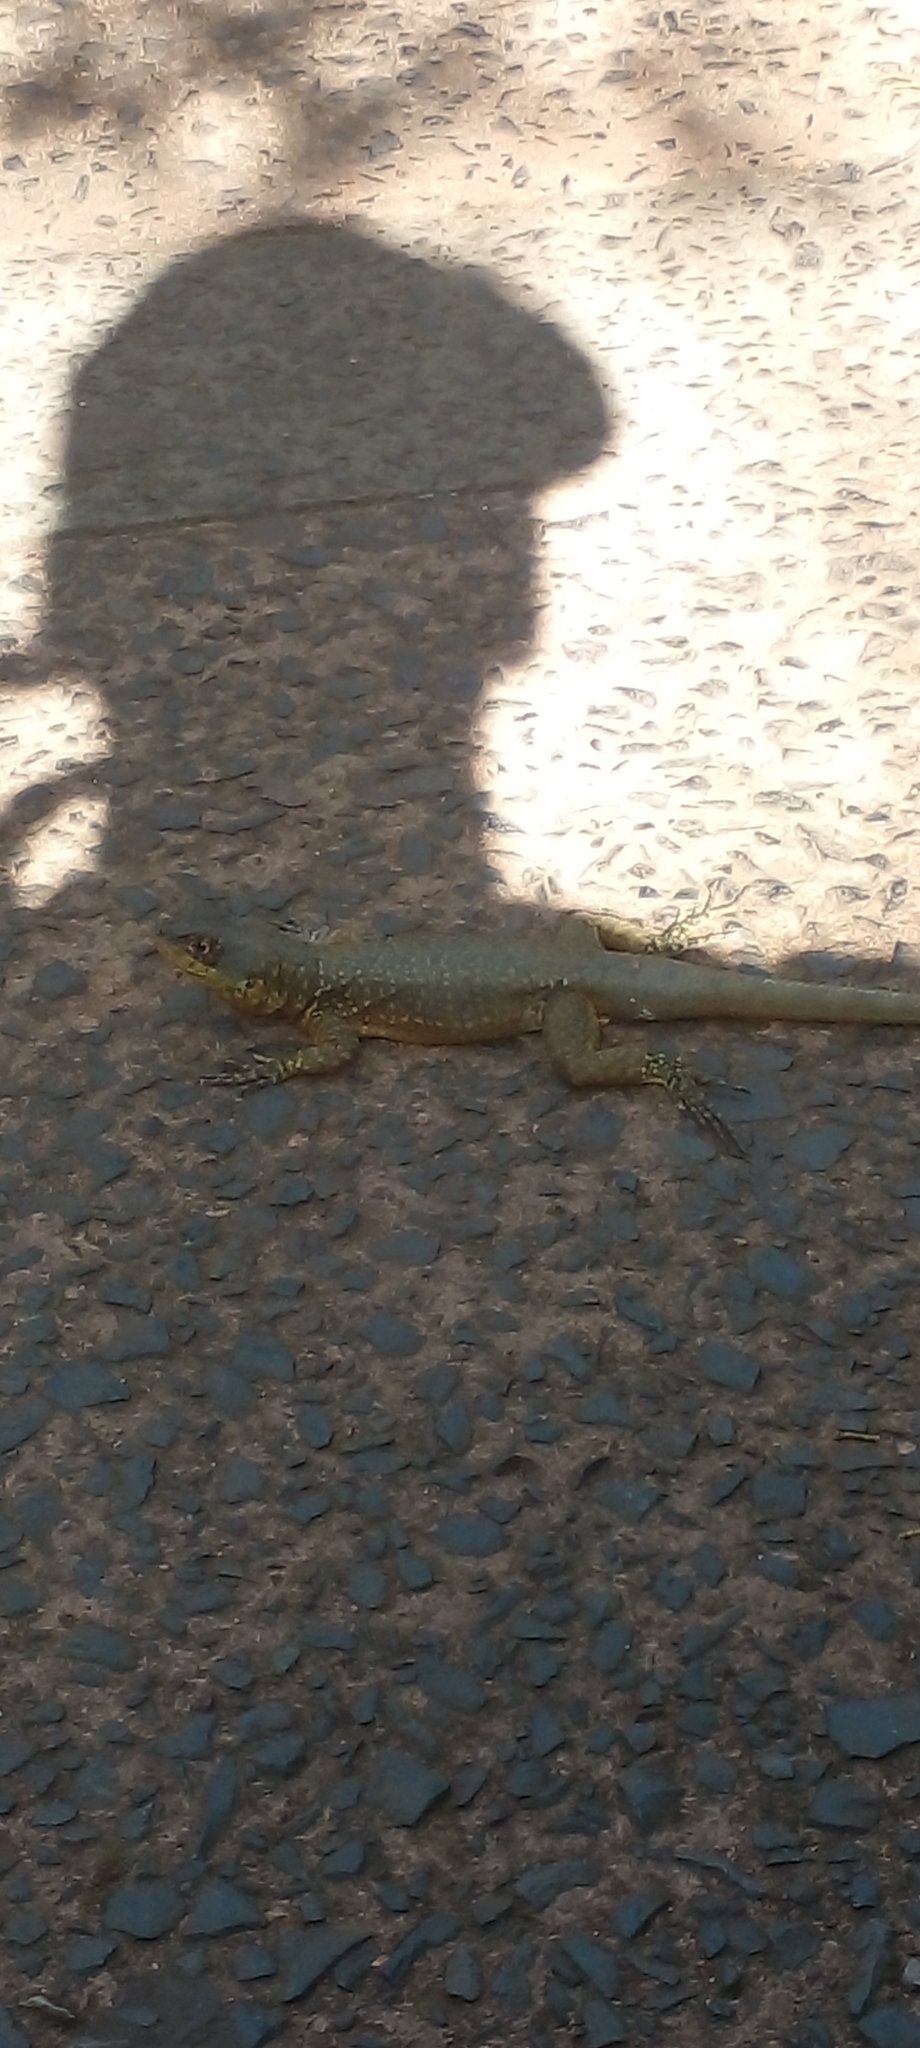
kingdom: Animalia
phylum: Chordata
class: Squamata
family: Tropiduridae
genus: Tropidurus
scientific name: Tropidurus catalanensis
